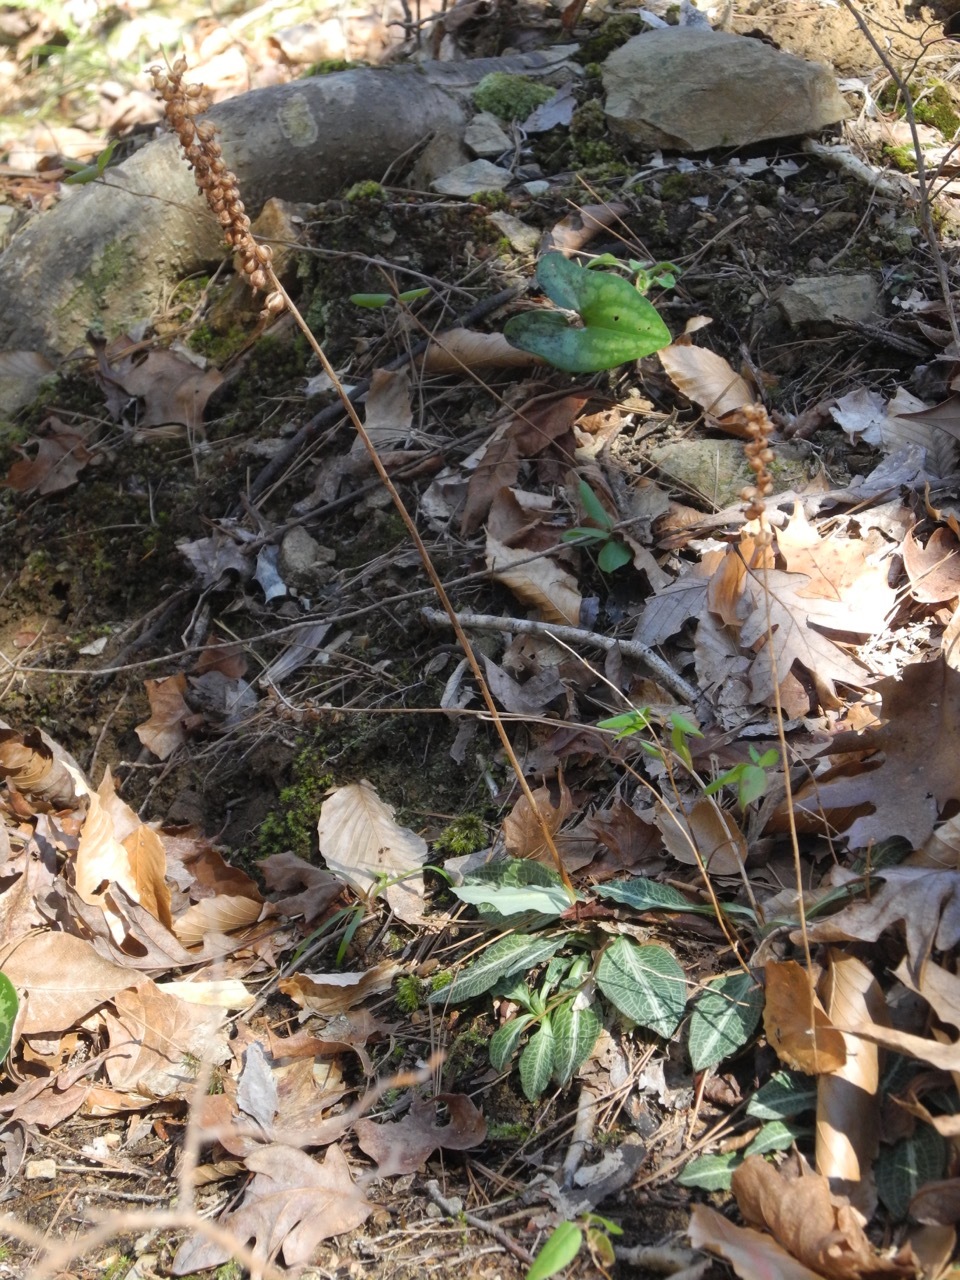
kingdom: Plantae
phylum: Tracheophyta
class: Liliopsida
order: Asparagales
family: Orchidaceae
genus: Goodyera
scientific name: Goodyera pubescens
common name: Downy rattlesnake-plantain
